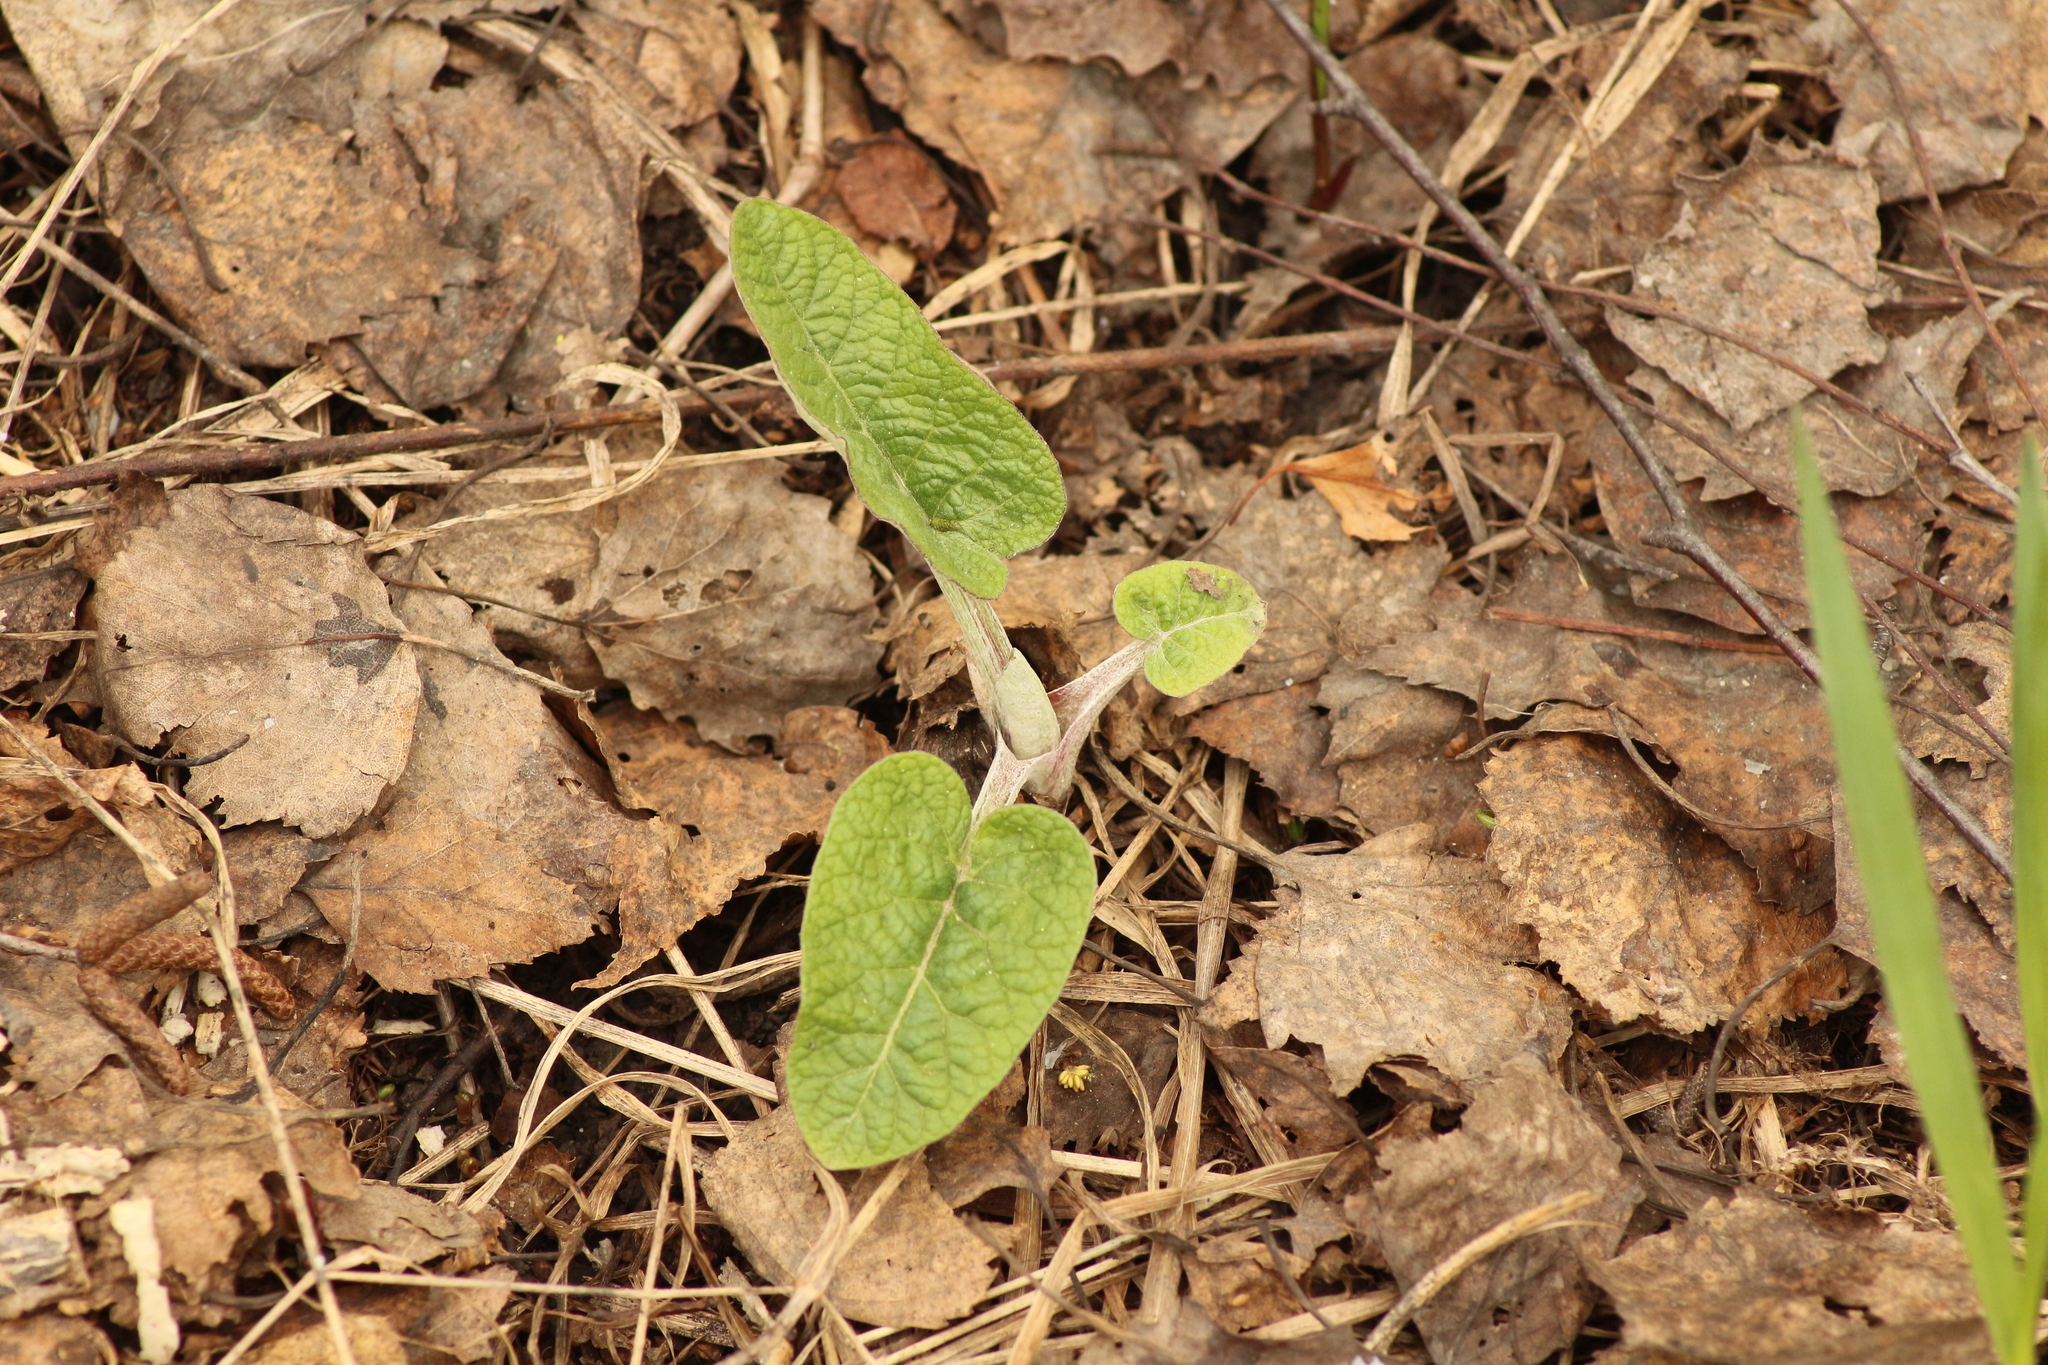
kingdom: Plantae
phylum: Tracheophyta
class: Magnoliopsida
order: Asterales
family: Asteraceae
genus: Arctium
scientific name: Arctium tomentosum
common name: Woolly burdock
